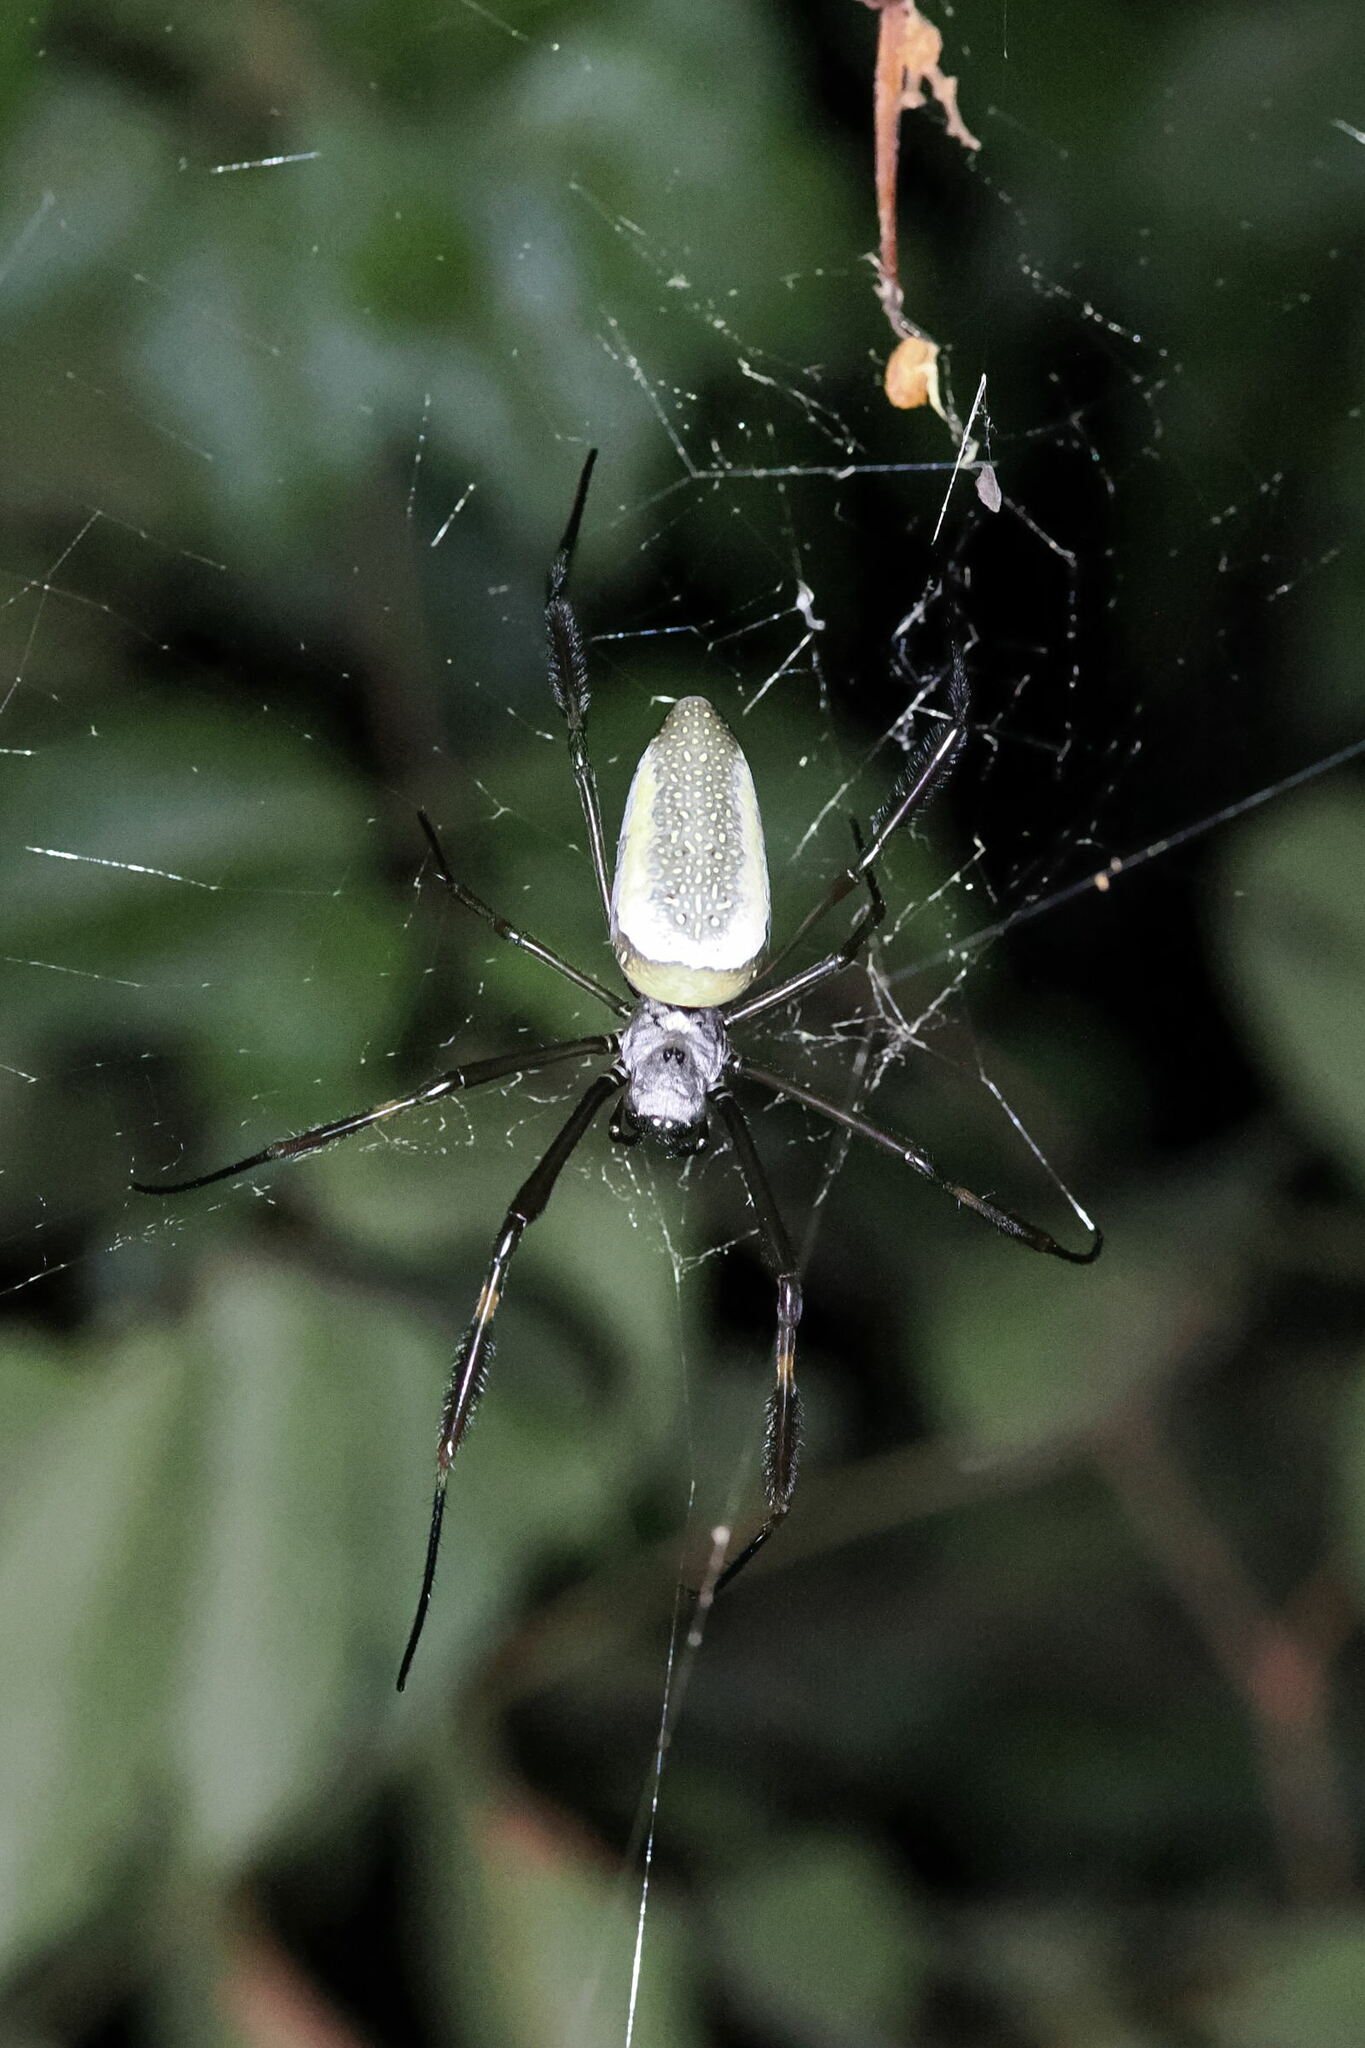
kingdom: Animalia
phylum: Arthropoda
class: Arachnida
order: Araneae
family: Araneidae
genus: Trichonephila
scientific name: Trichonephila clavipes
